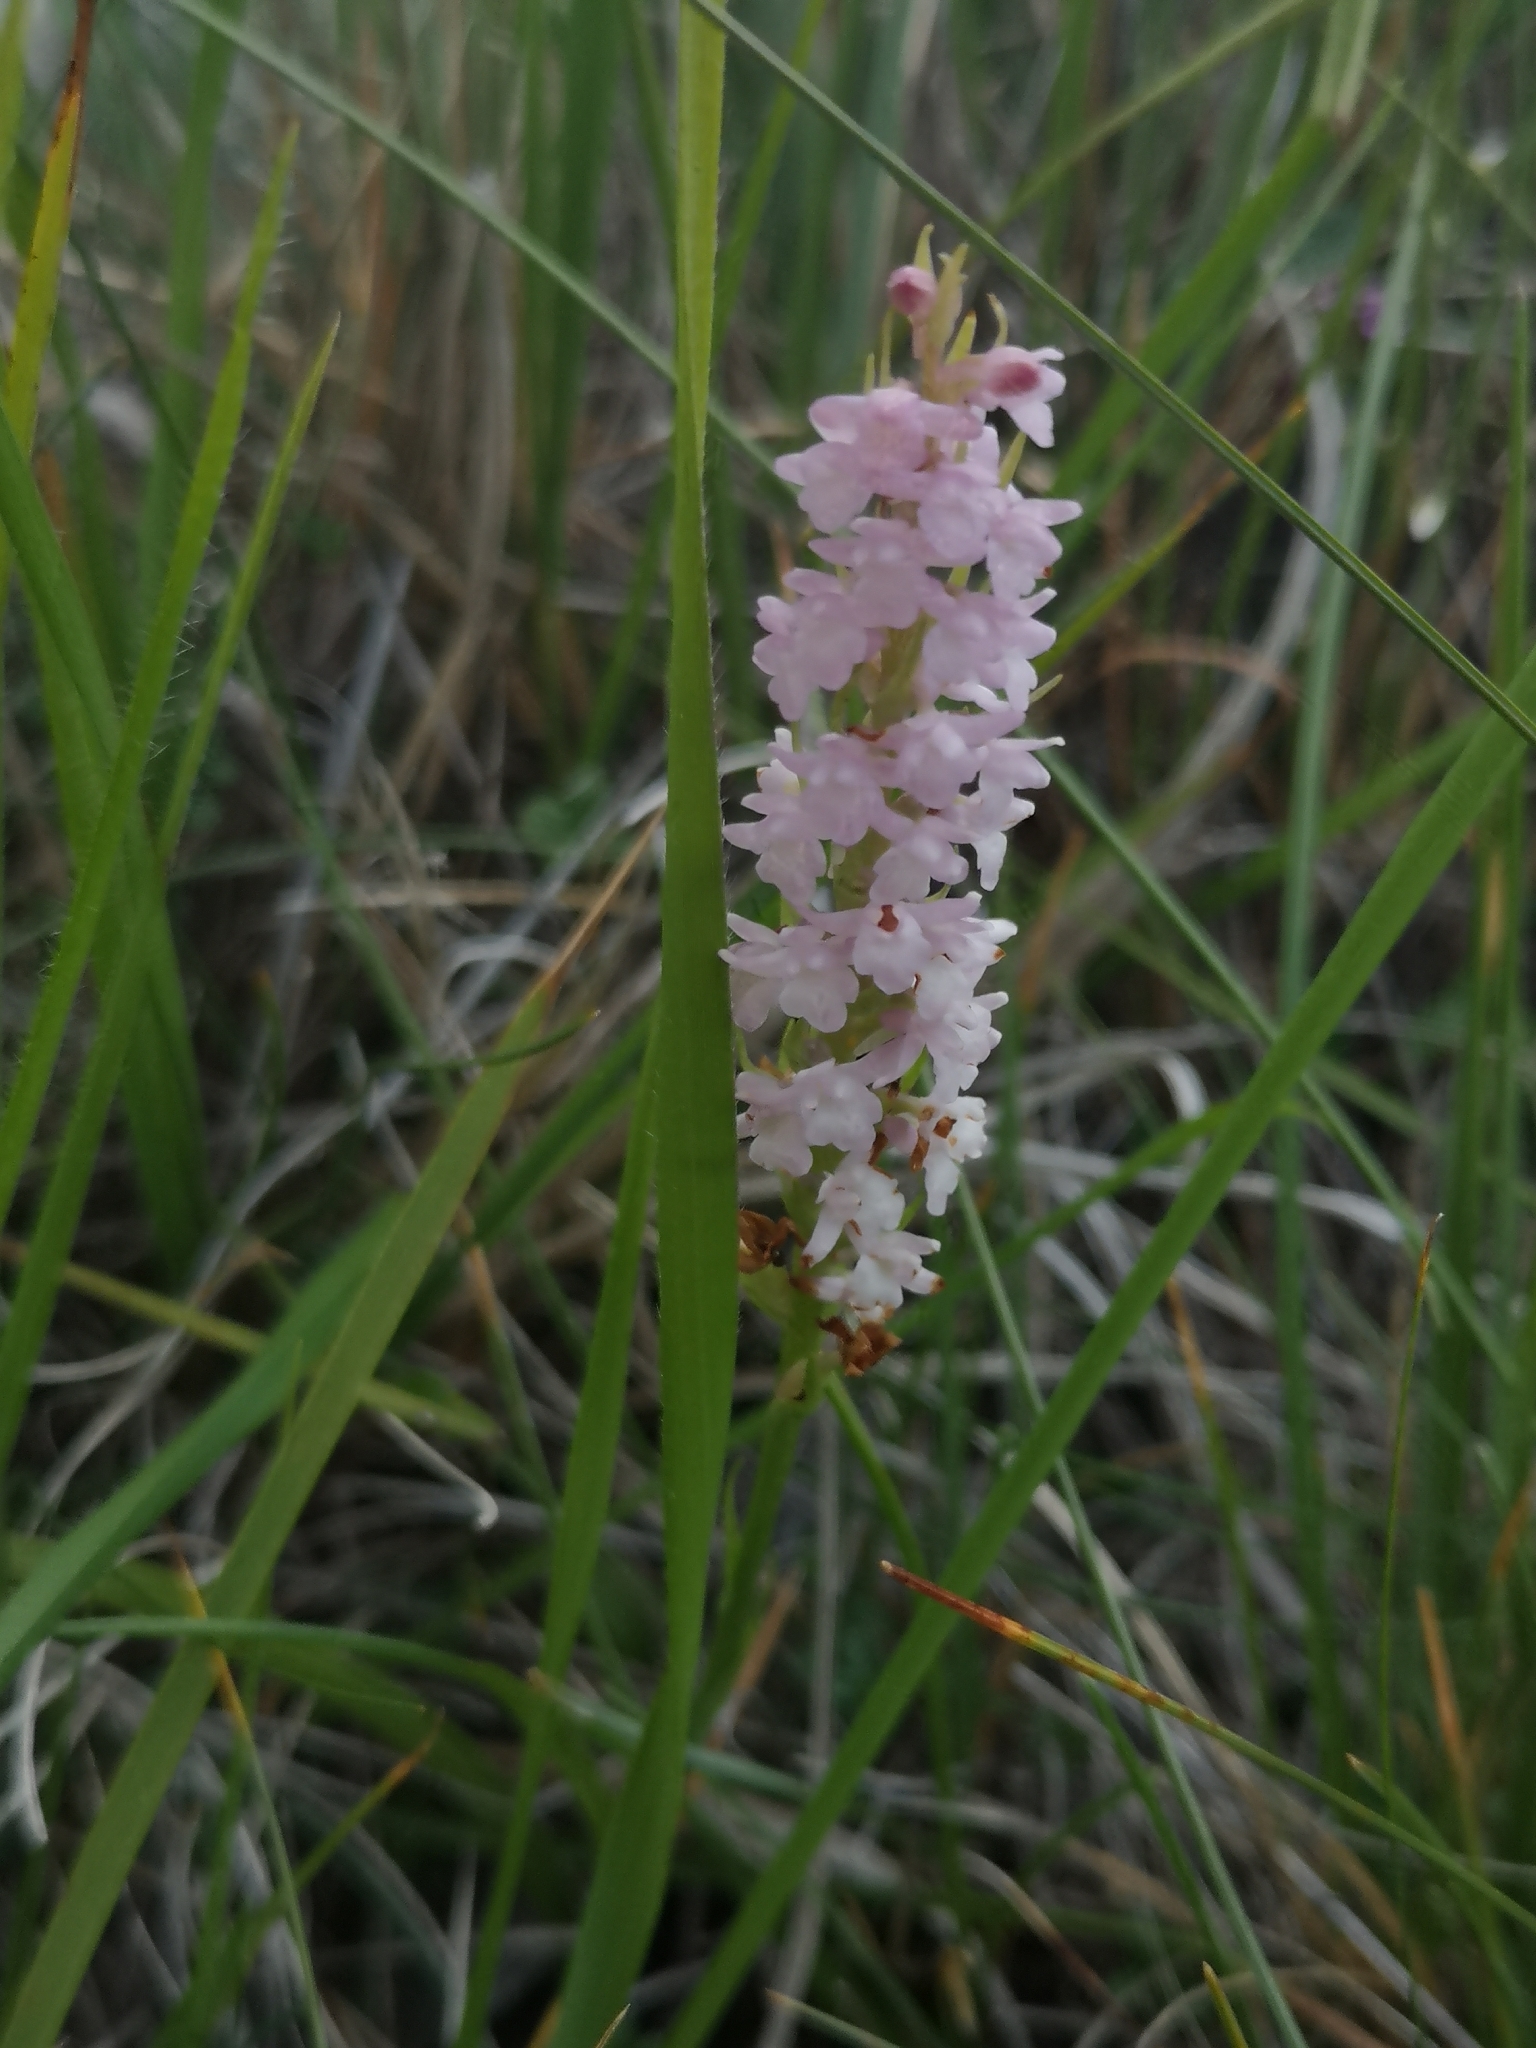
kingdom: Plantae
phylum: Tracheophyta
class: Liliopsida
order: Asparagales
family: Orchidaceae
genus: Gymnadenia
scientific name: Gymnadenia odoratissima
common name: Scented gymnadenia
